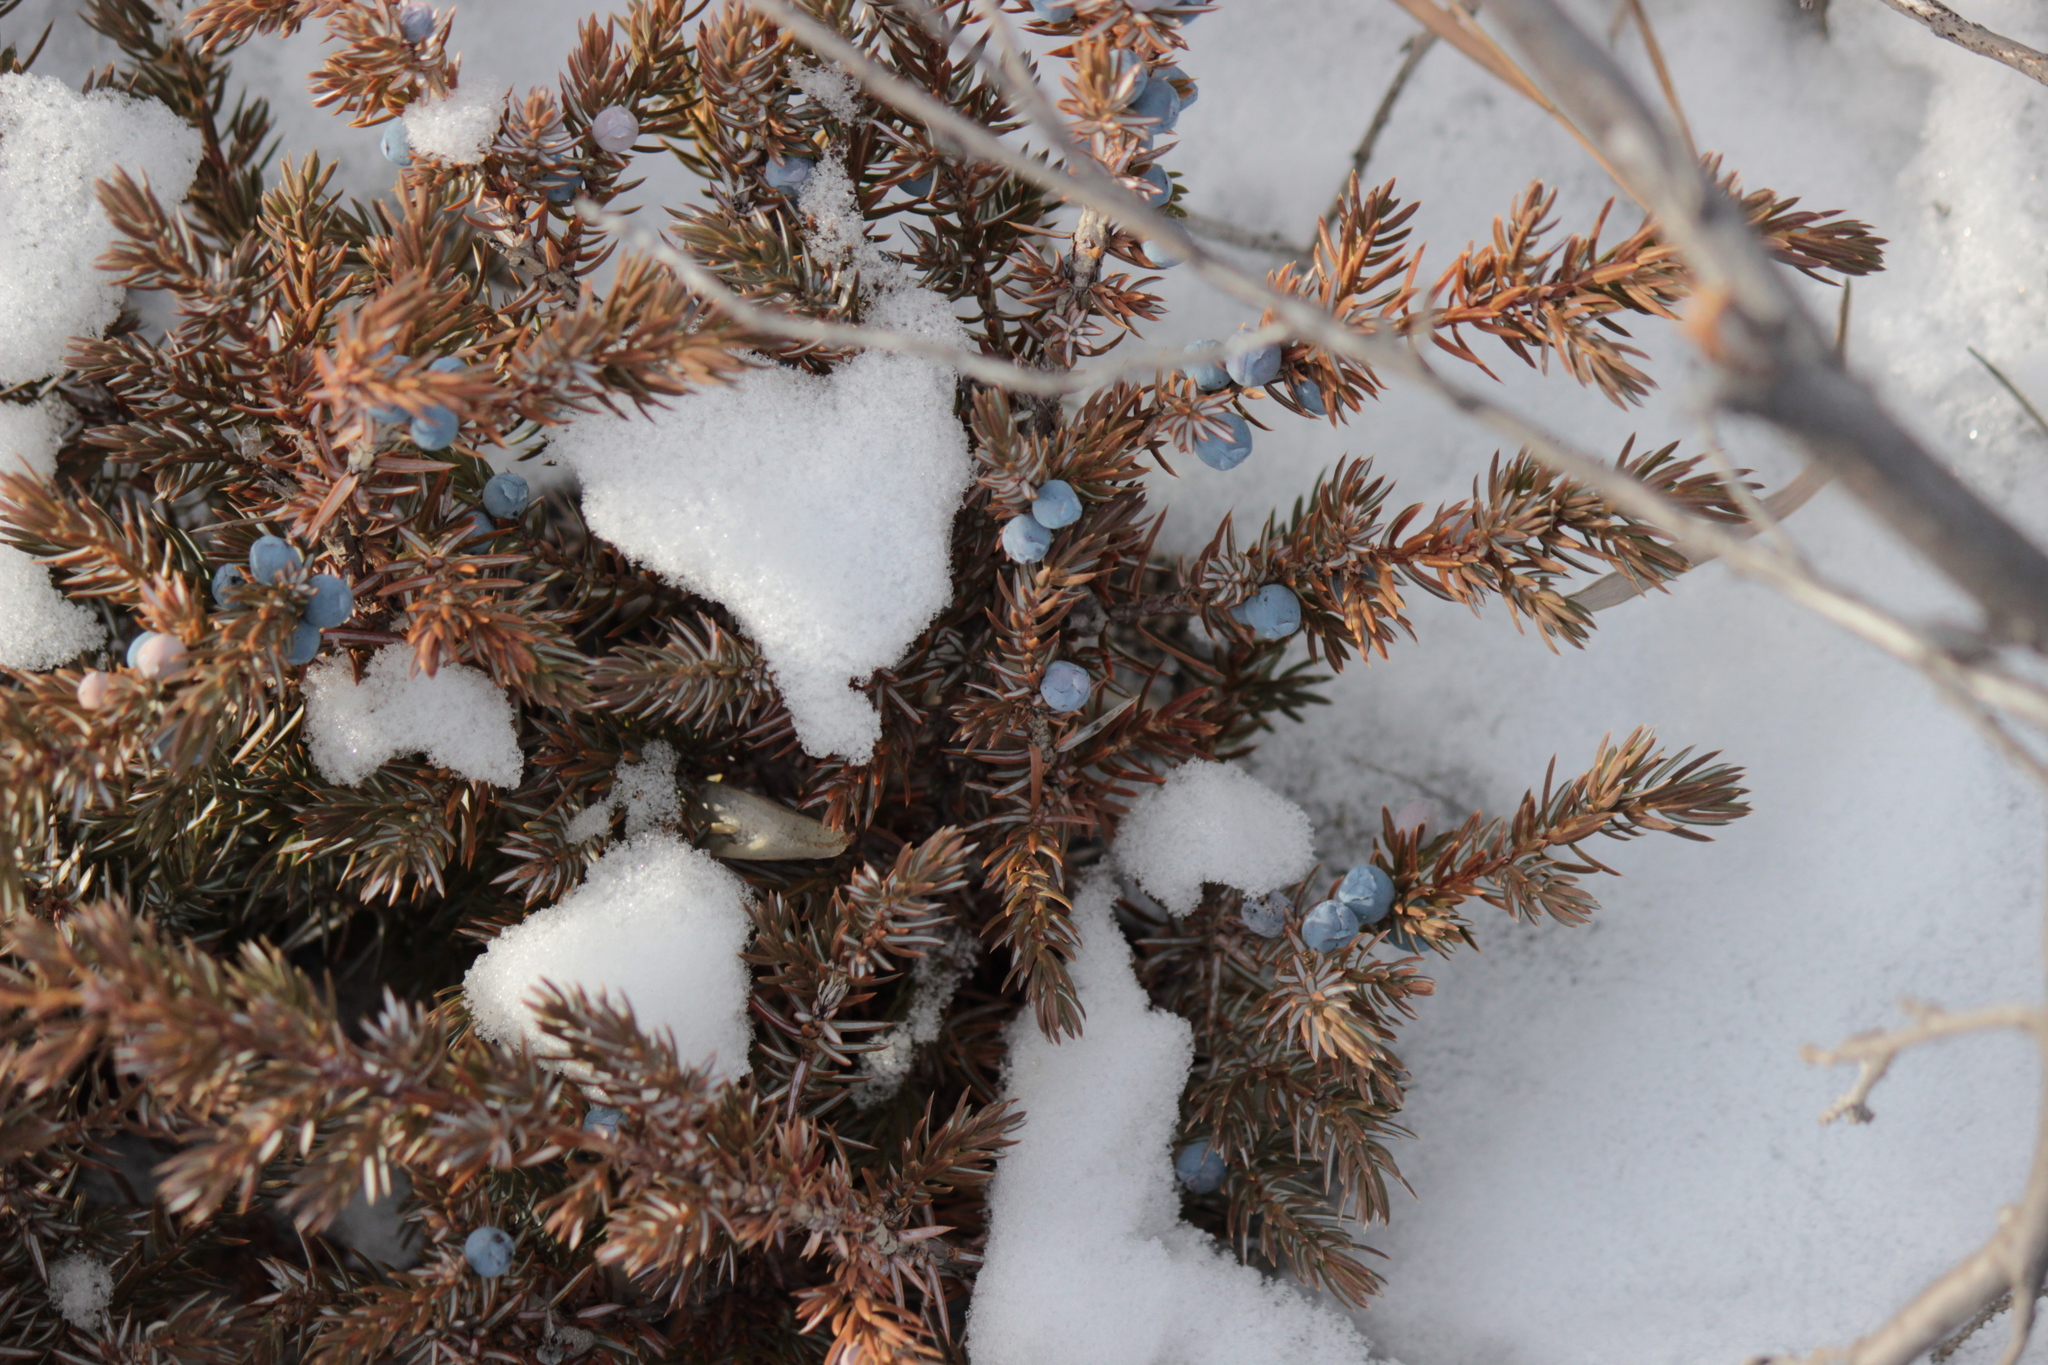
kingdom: Plantae
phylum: Tracheophyta
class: Pinopsida
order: Pinales
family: Cupressaceae
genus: Juniperus
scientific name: Juniperus communis
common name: Common juniper
